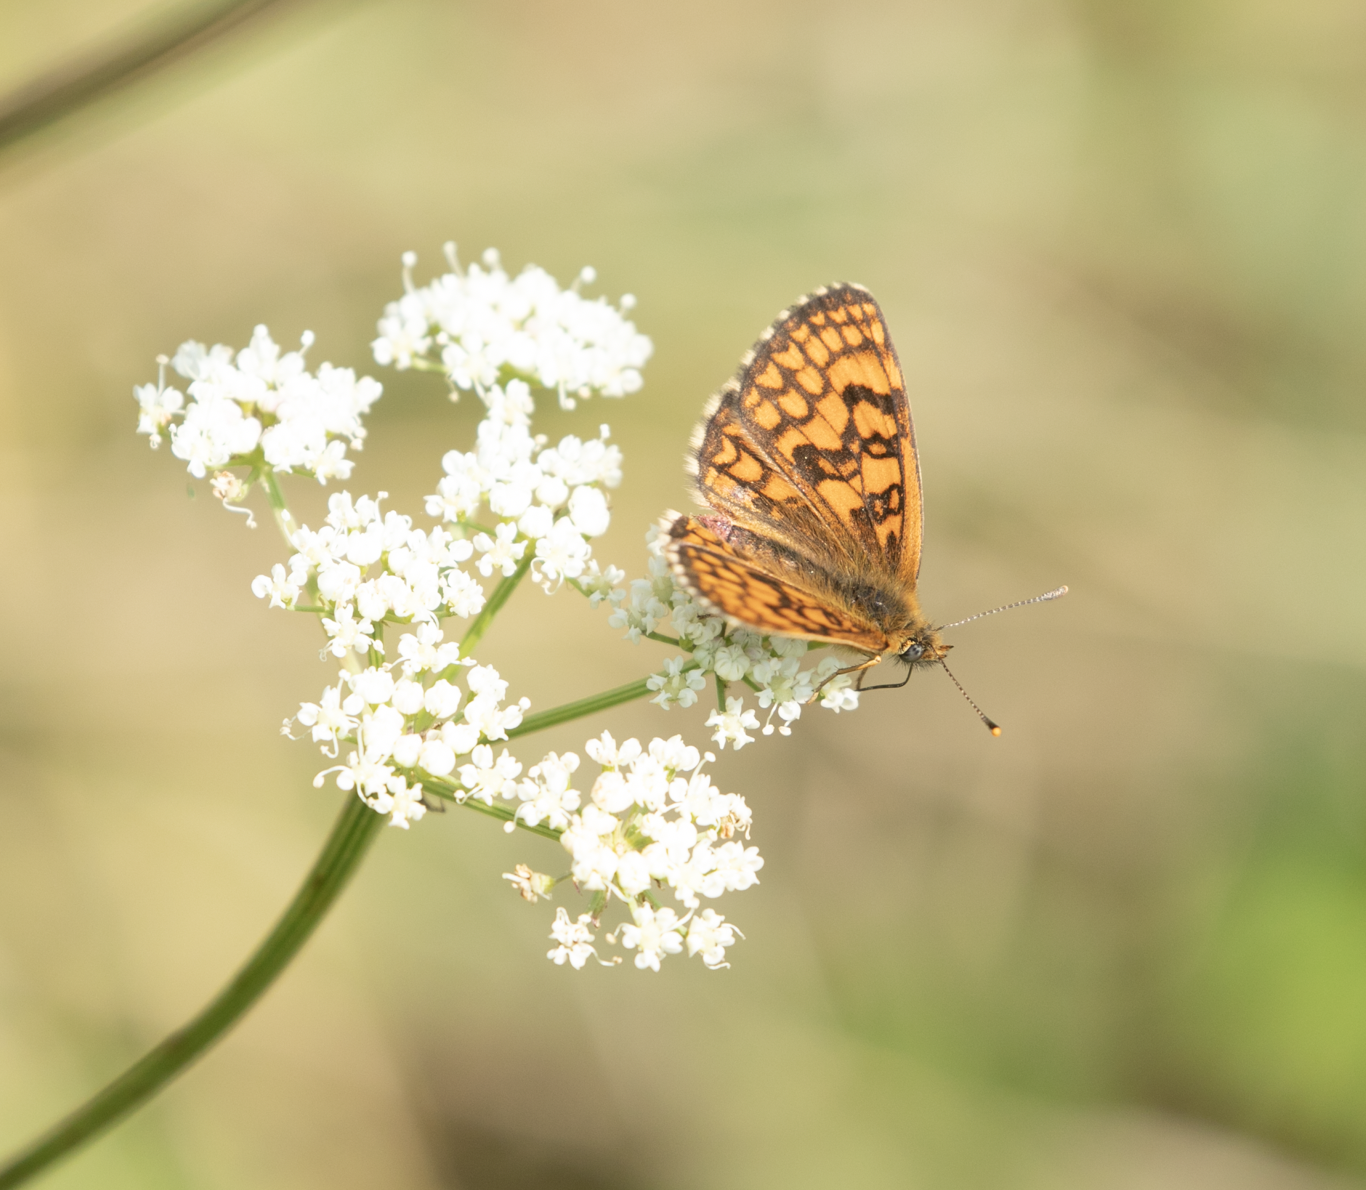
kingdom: Animalia
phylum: Arthropoda
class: Insecta
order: Lepidoptera
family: Nymphalidae
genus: Mellicta
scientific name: Mellicta athalia
